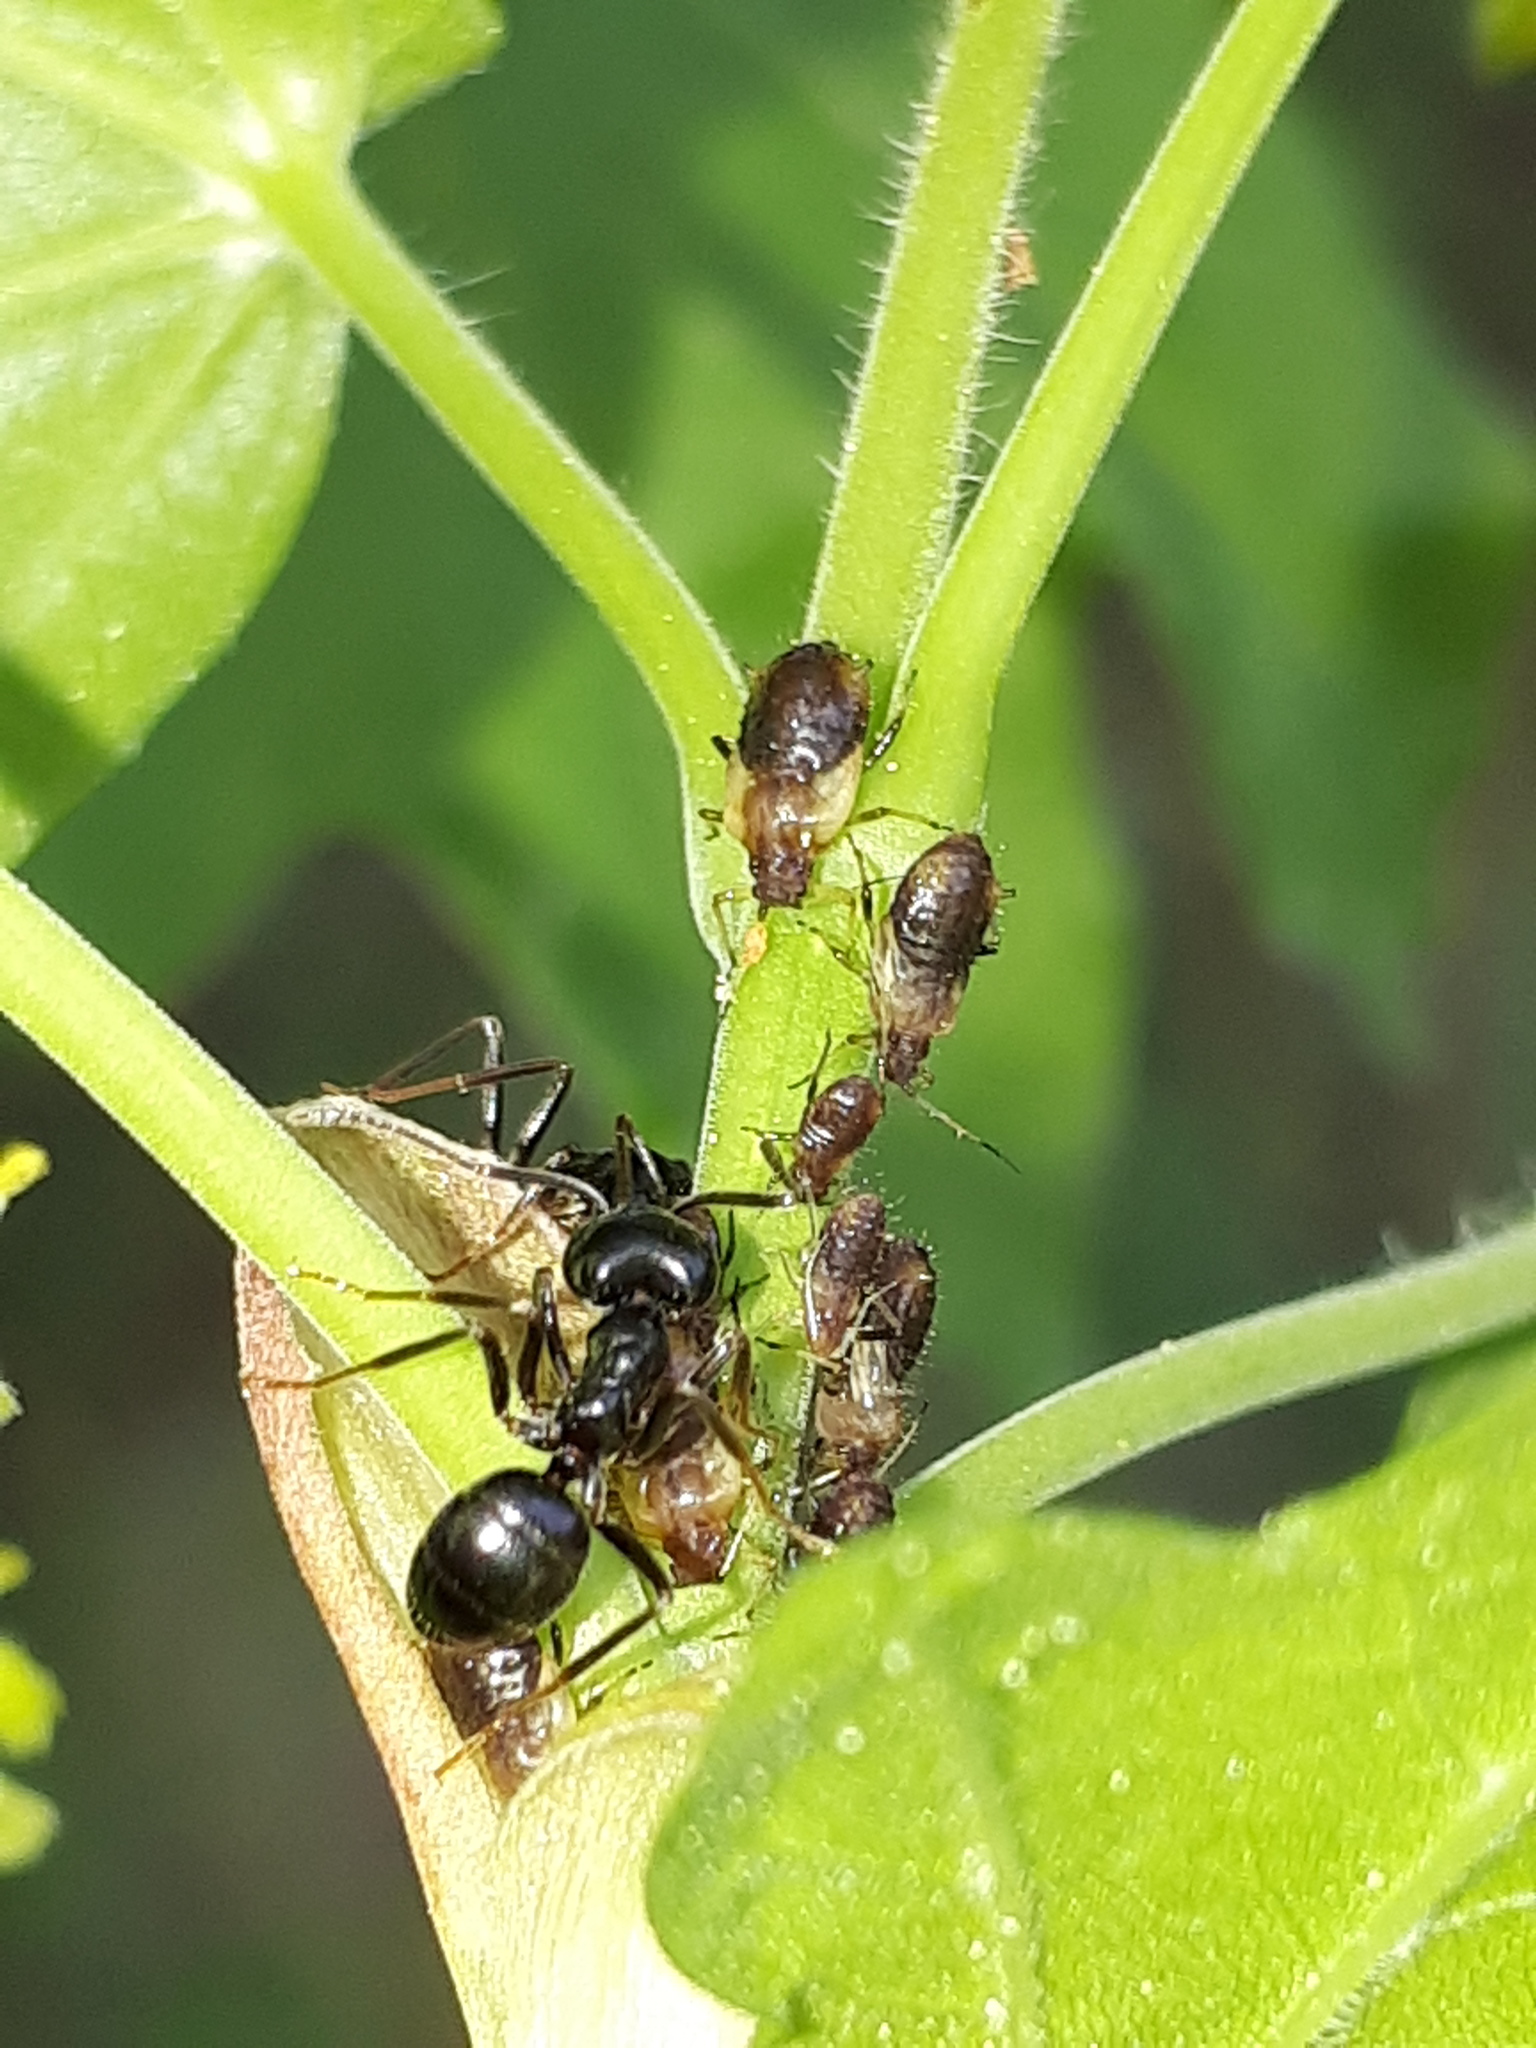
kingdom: Animalia
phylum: Arthropoda
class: Insecta
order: Hymenoptera
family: Formicidae
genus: Lasius
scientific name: Lasius fuliginosus
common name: Jet ant
